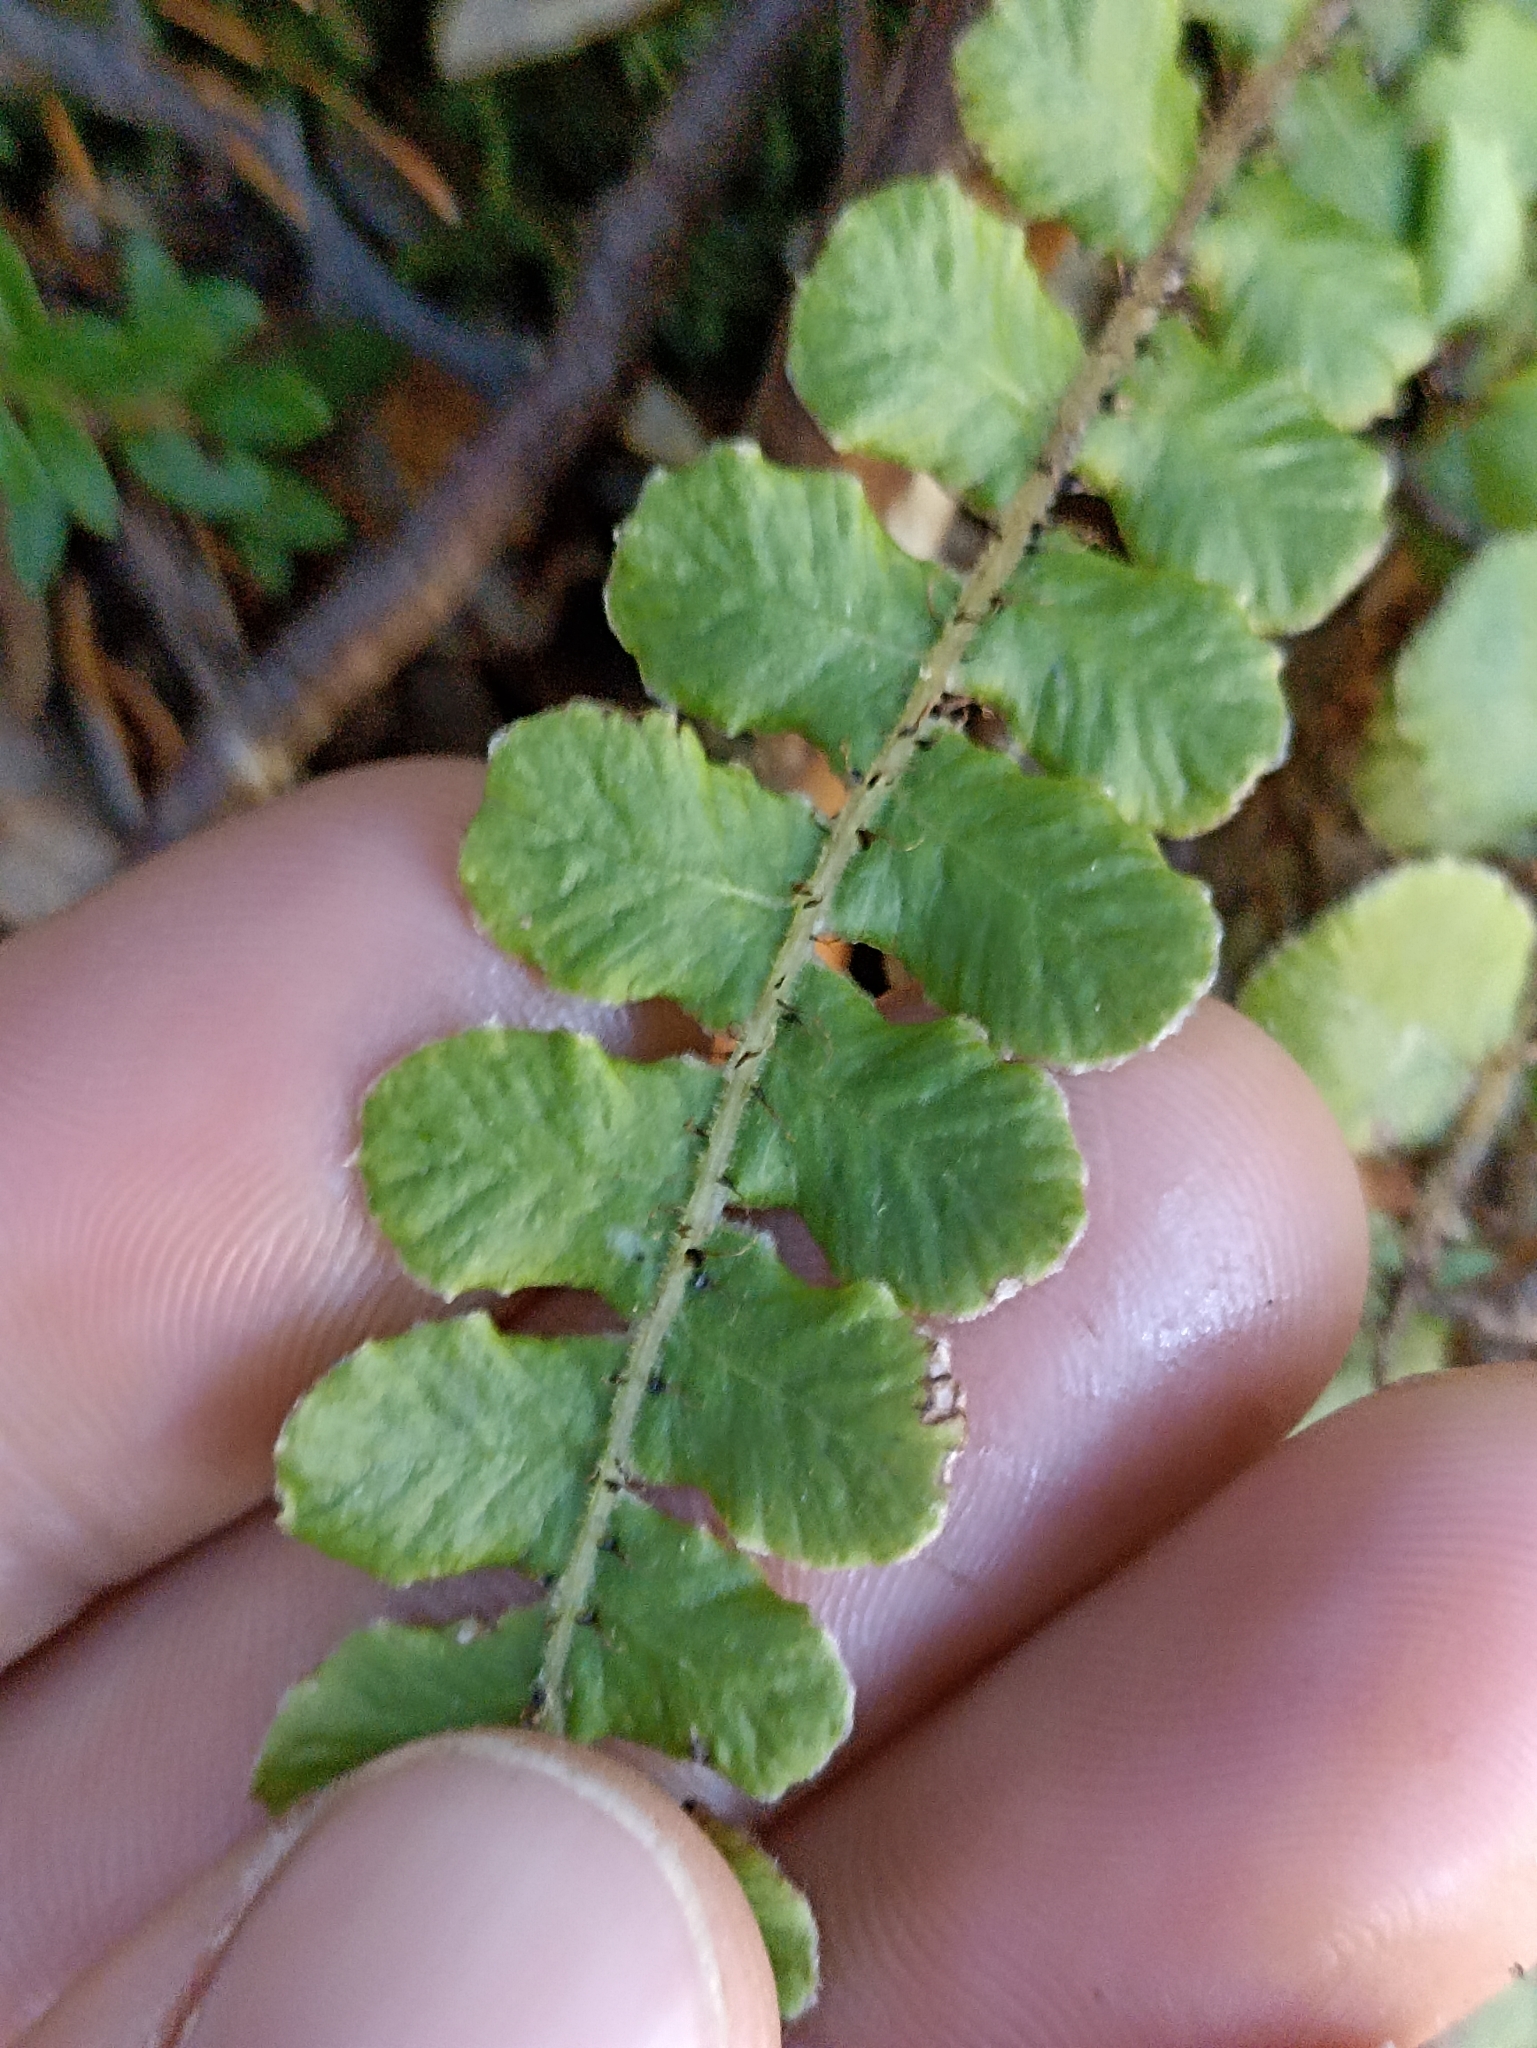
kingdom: Plantae
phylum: Tracheophyta
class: Polypodiopsida
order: Polypodiales
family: Blechnaceae
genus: Cranfillia
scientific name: Cranfillia fluviatilis
